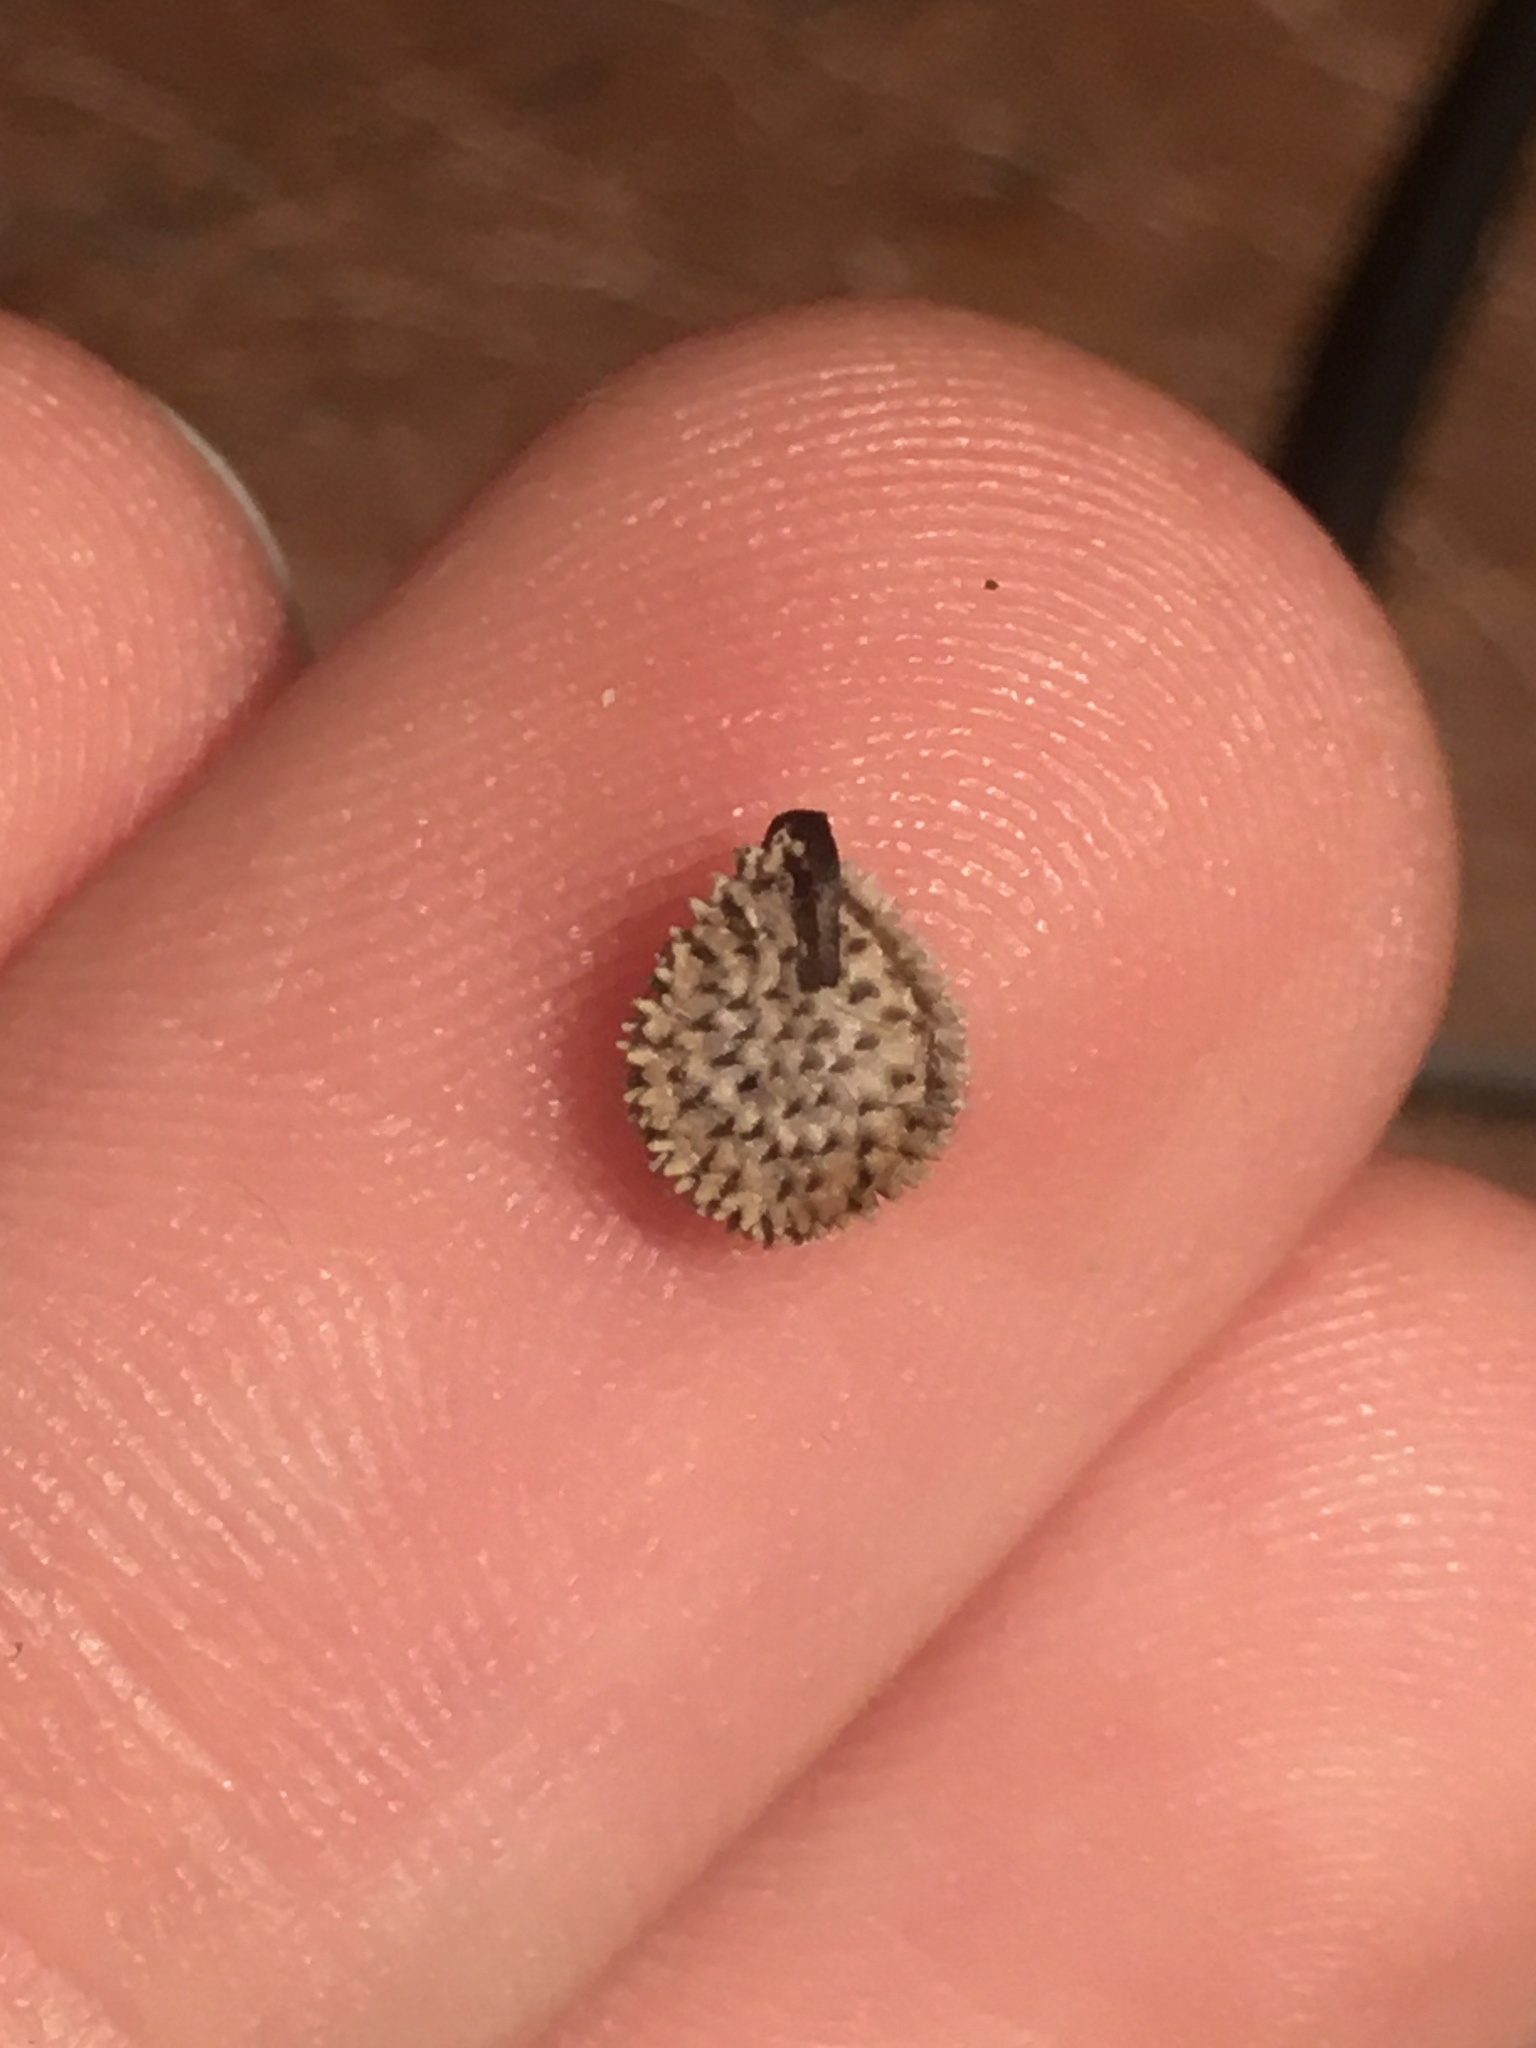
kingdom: Plantae
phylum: Tracheophyta
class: Magnoliopsida
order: Boraginales
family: Boraginaceae
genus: Cynoglossum
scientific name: Cynoglossum officinale
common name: Hound's-tongue
